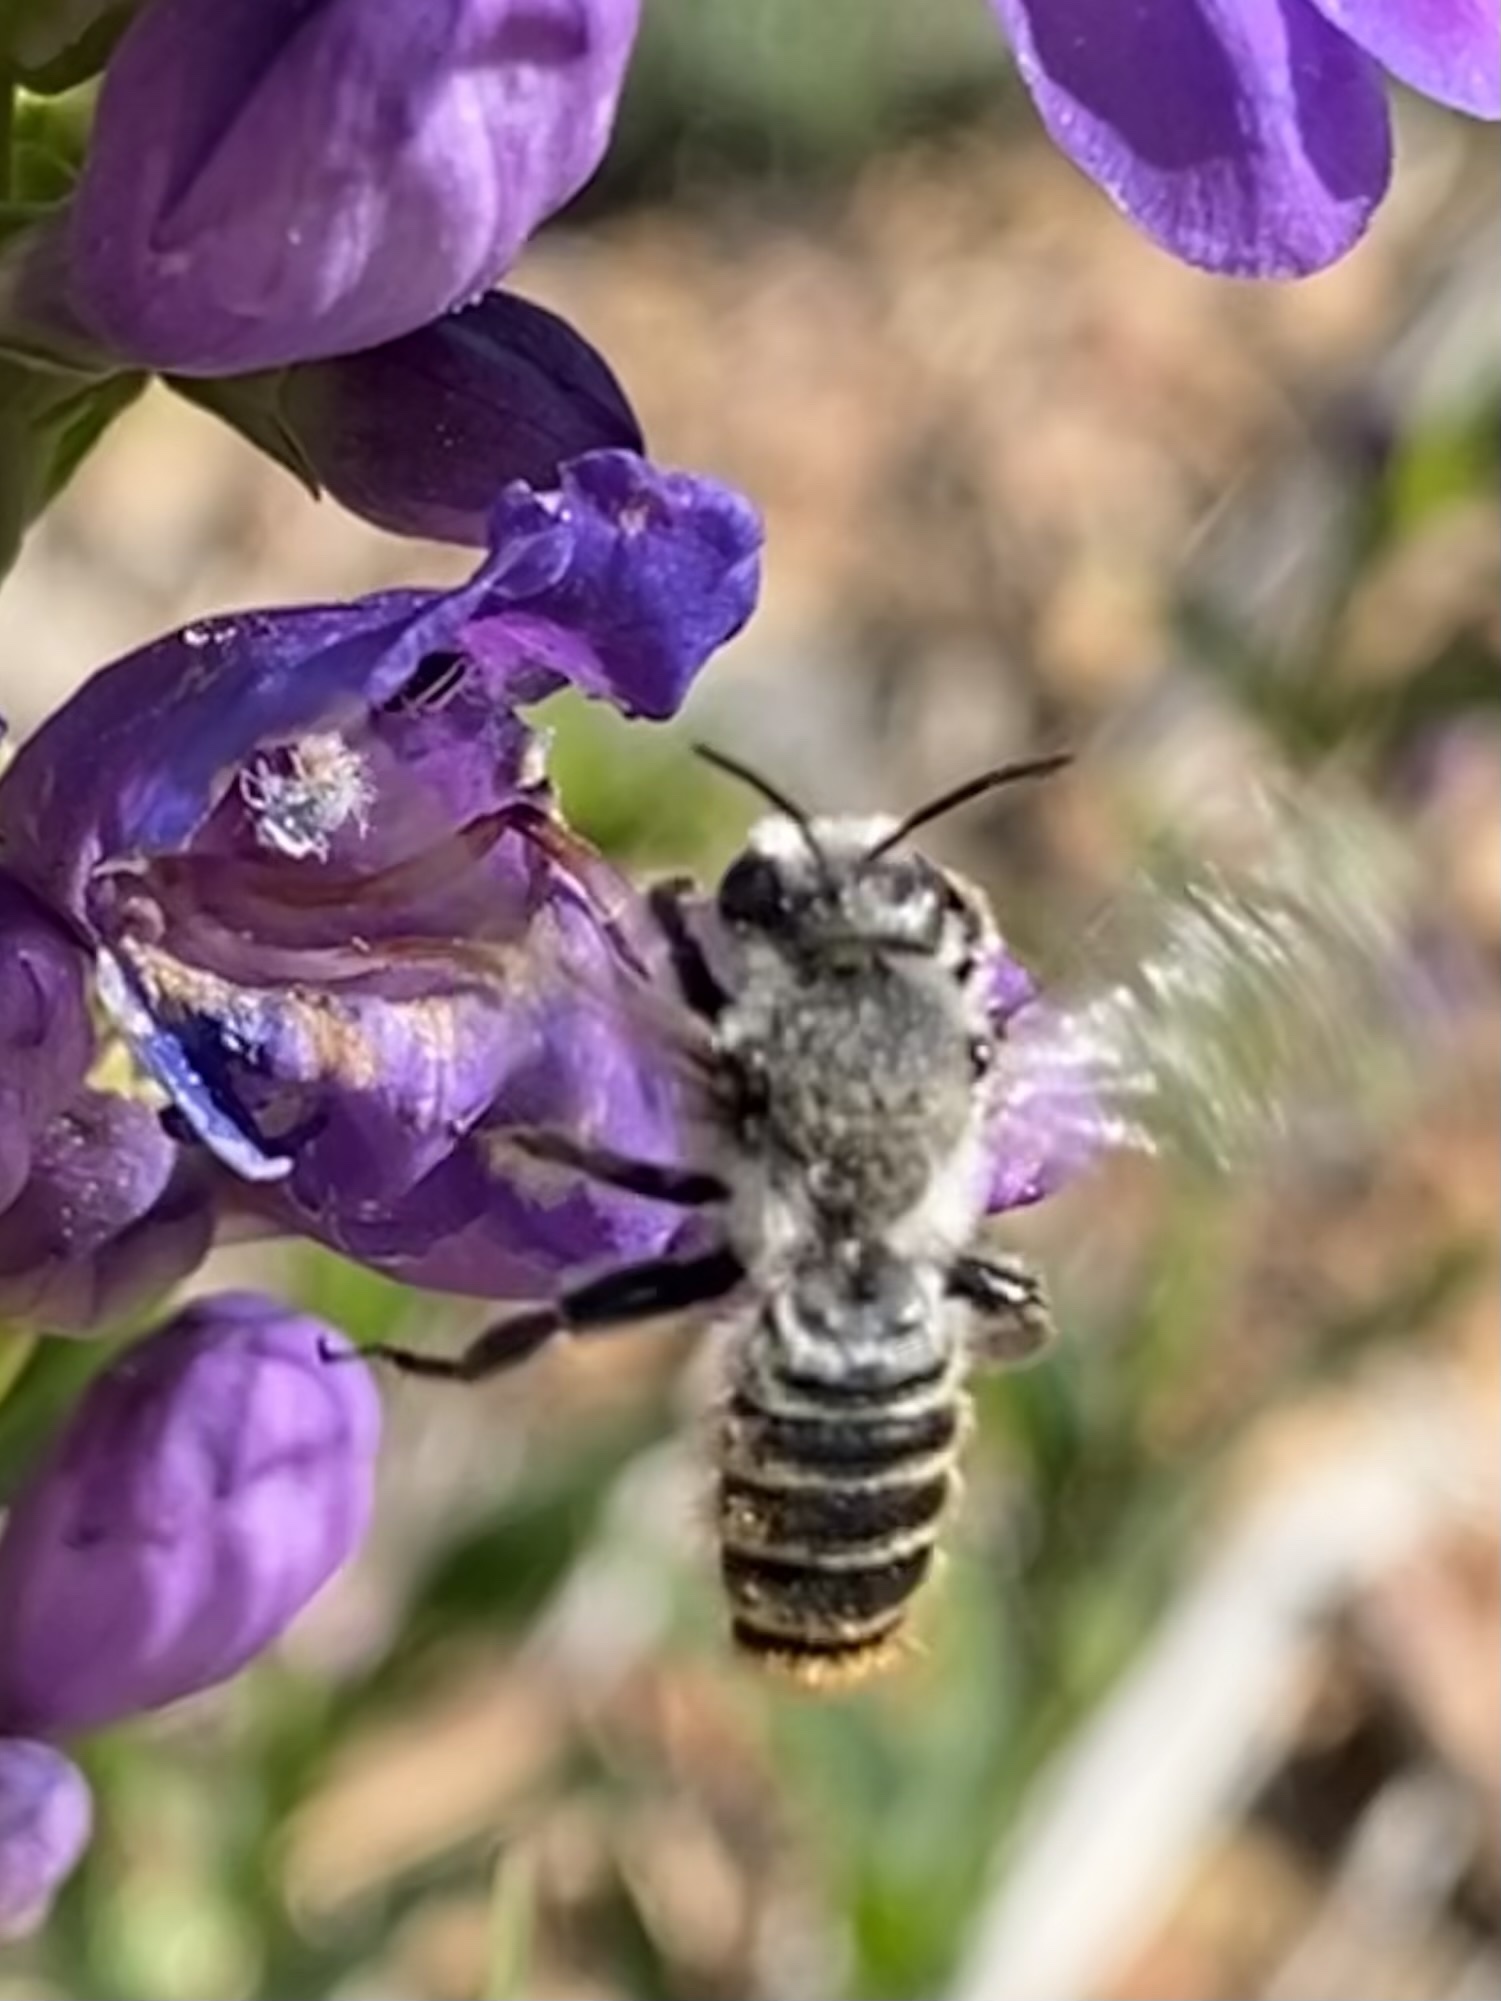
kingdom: Animalia
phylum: Arthropoda
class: Insecta
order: Hymenoptera
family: Megachilidae
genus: Lithurgopsis
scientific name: Lithurgopsis apicalis
